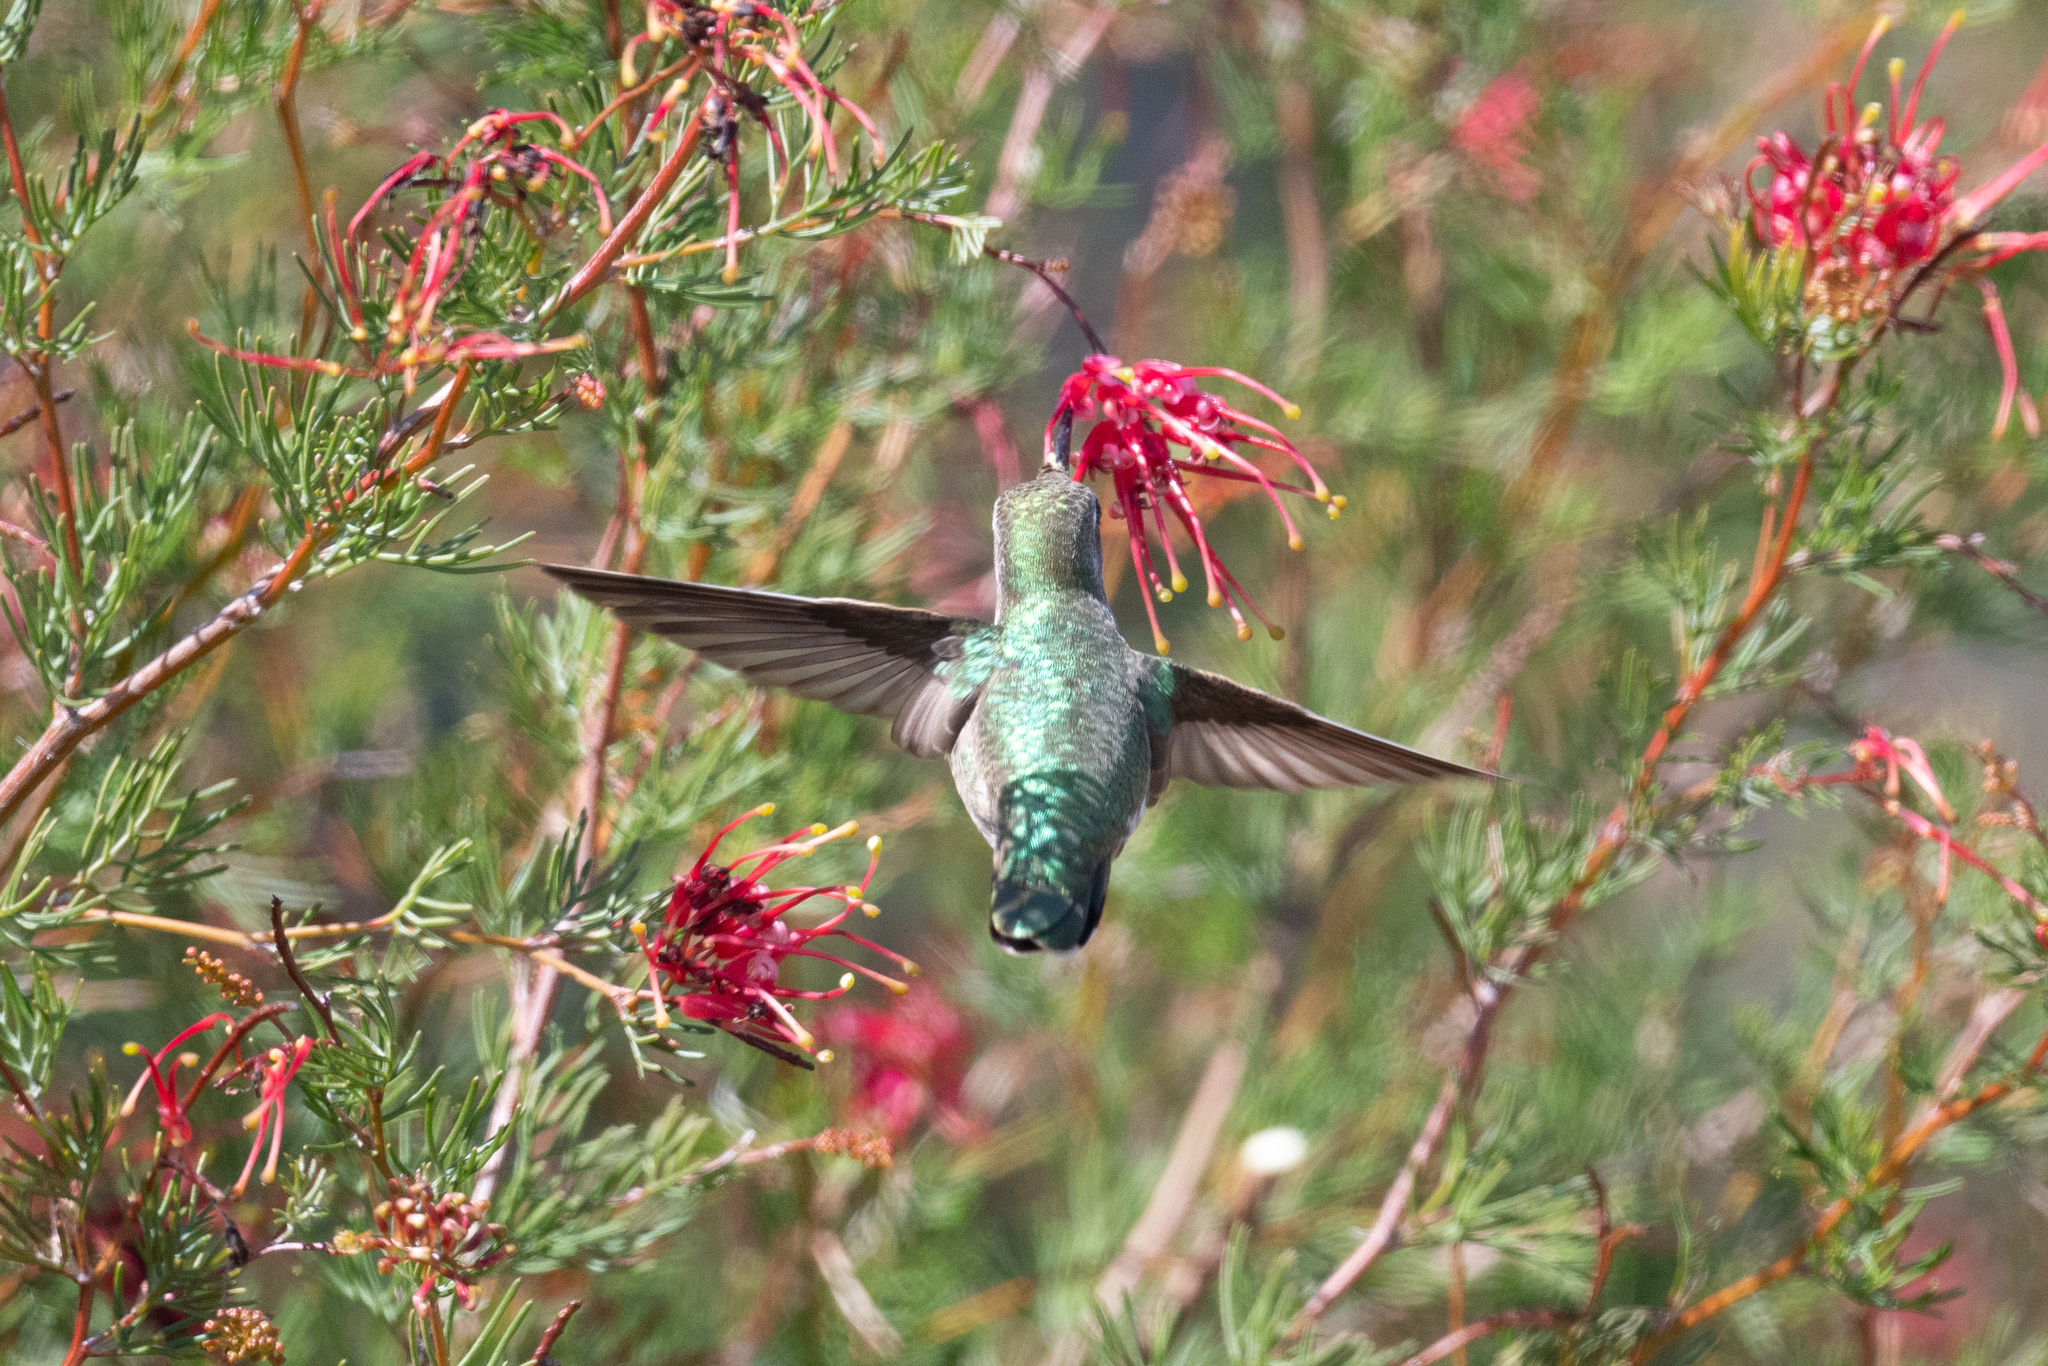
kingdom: Animalia
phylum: Chordata
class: Aves
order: Apodiformes
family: Trochilidae
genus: Calypte
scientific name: Calypte anna
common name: Anna's hummingbird
